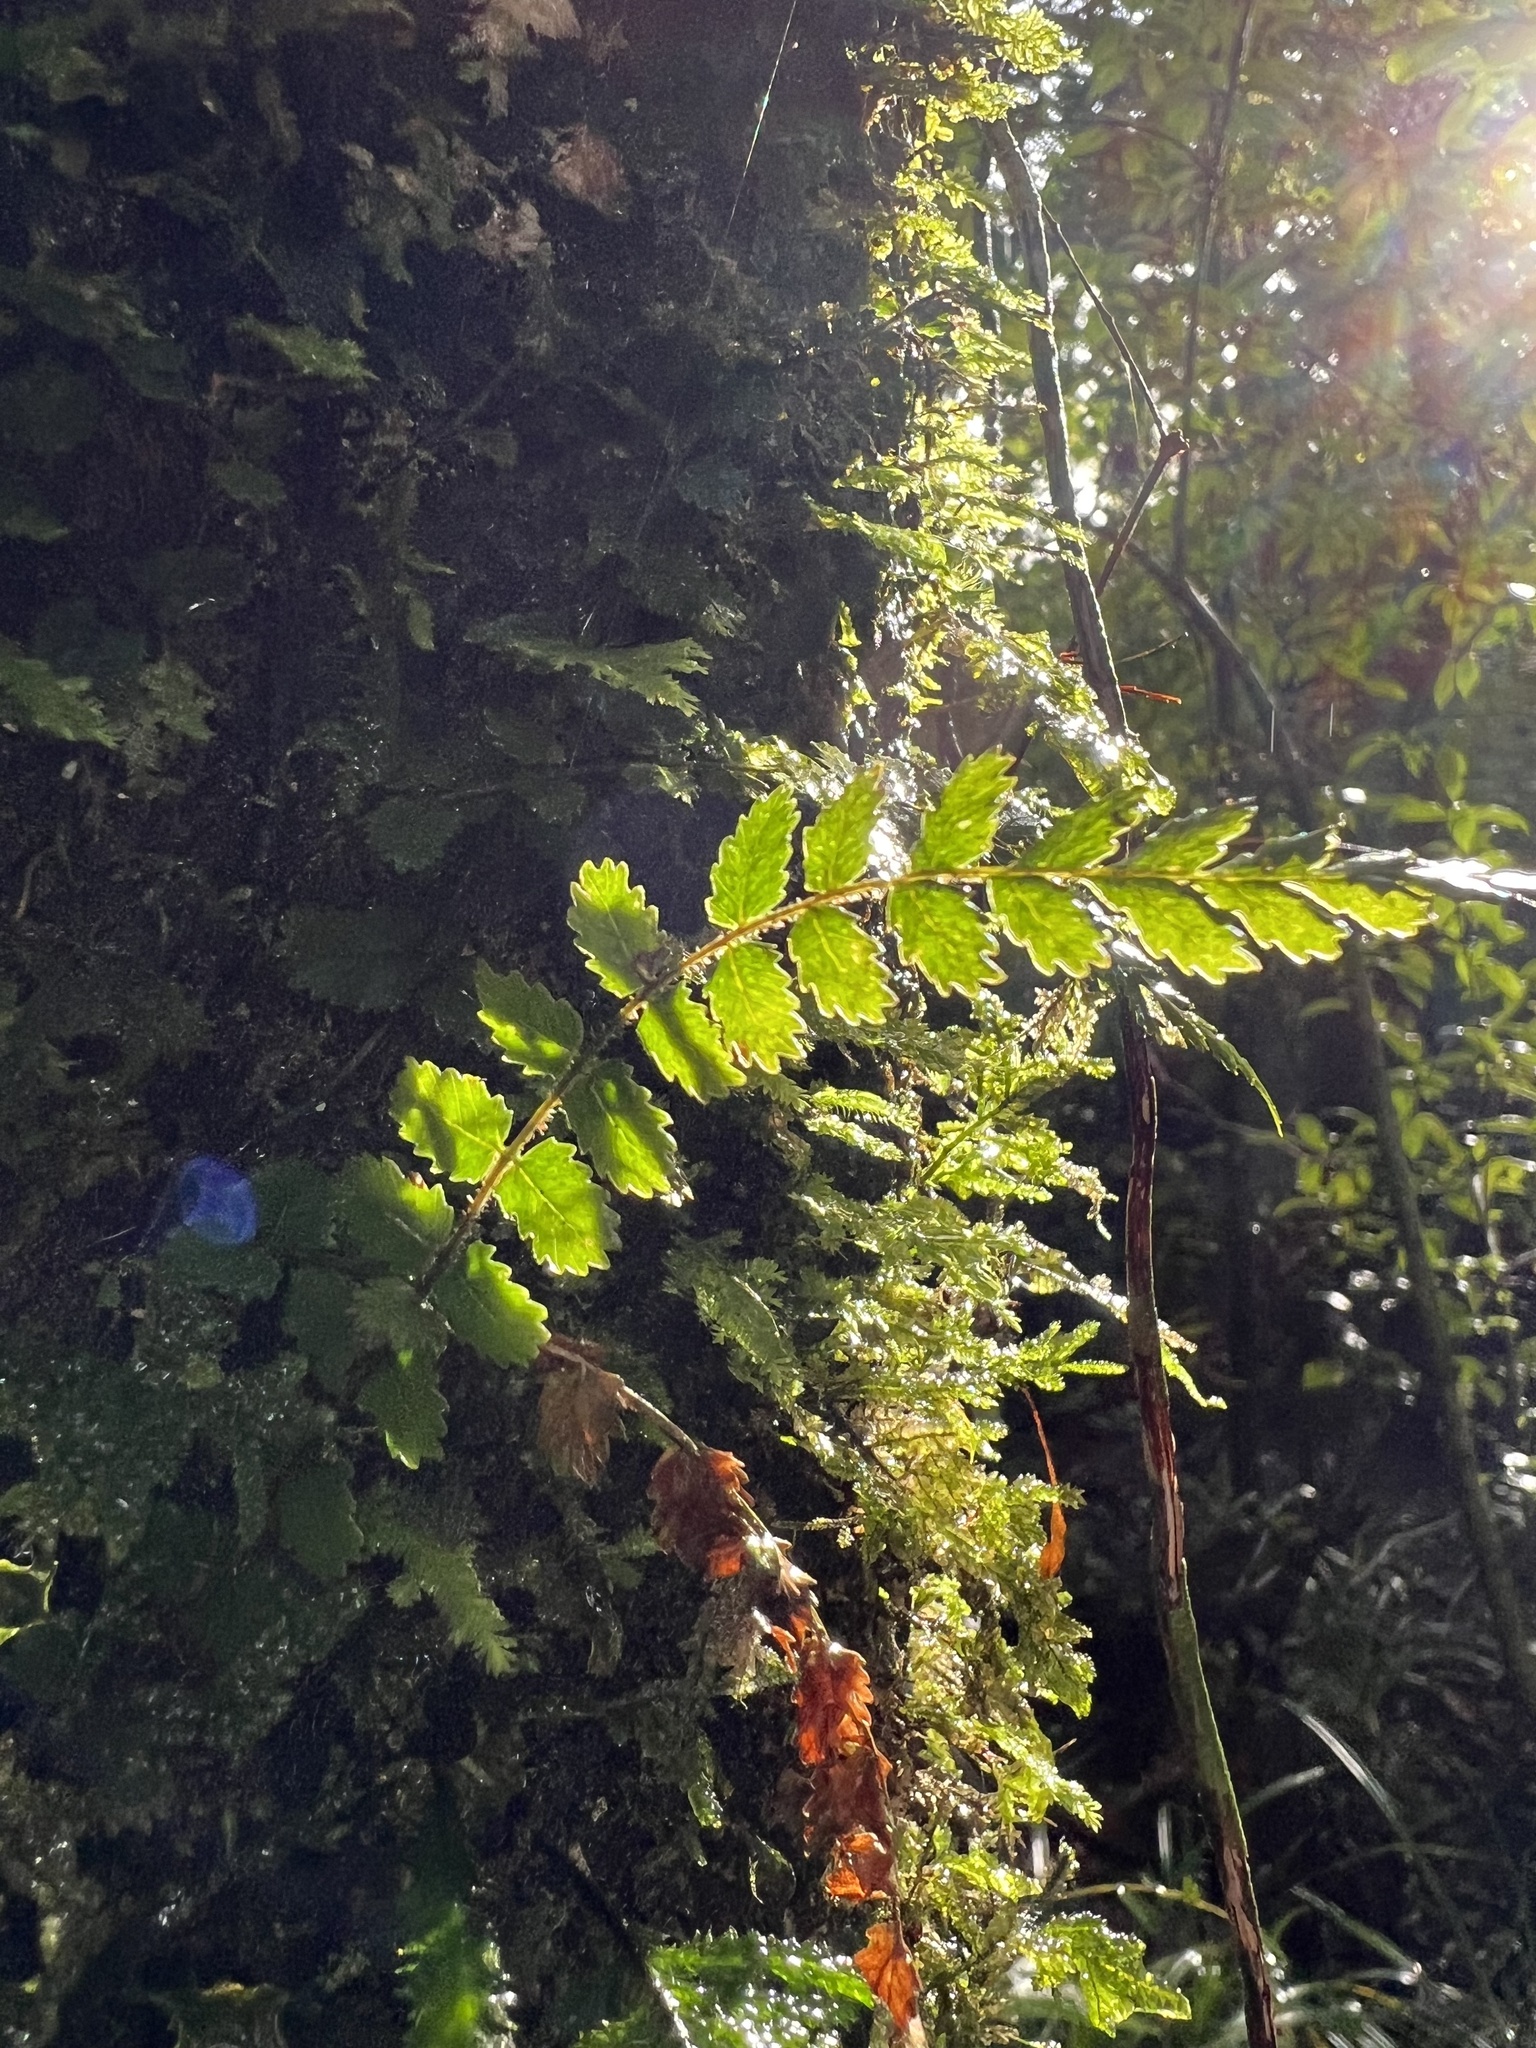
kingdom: Plantae
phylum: Tracheophyta
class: Polypodiopsida
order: Polypodiales
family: Blechnaceae
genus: Icarus
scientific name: Icarus filiformis
